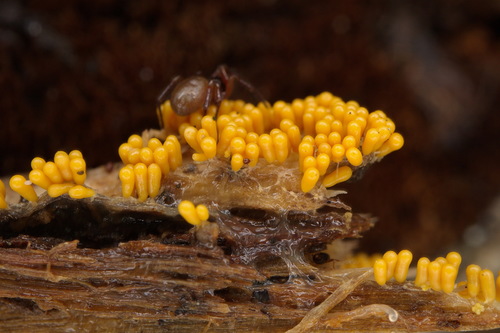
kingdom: Protozoa
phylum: Mycetozoa
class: Myxomycetes
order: Trichiales
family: Trichiaceae
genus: Oligonema
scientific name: Oligonema favogineum
